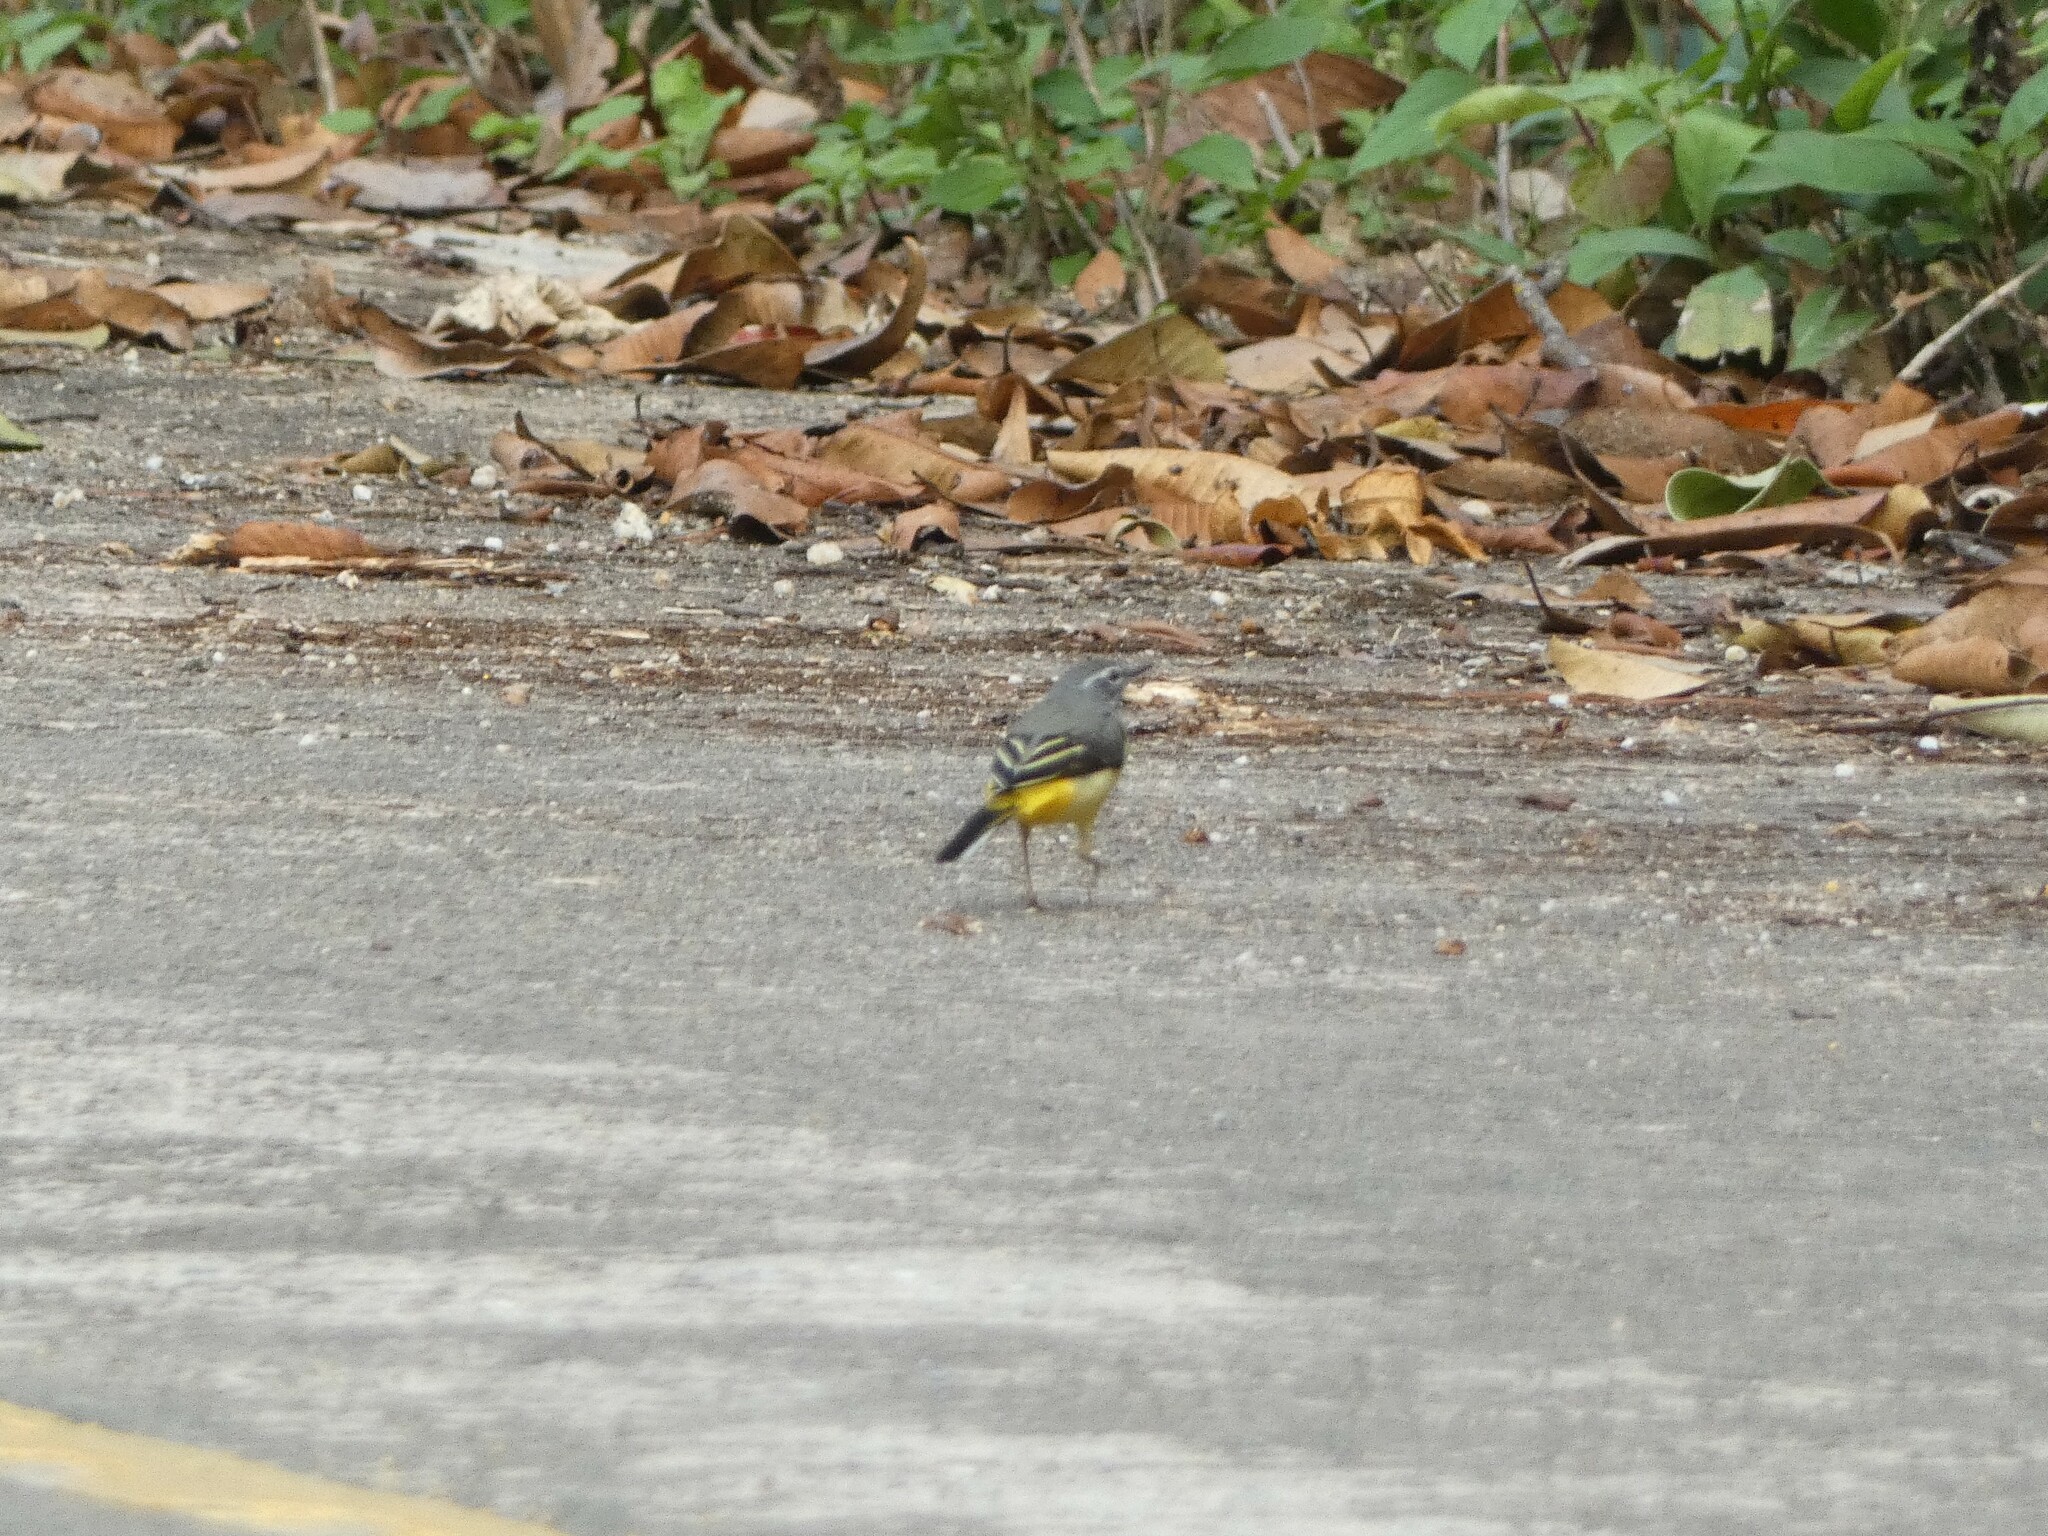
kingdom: Animalia
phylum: Chordata
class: Aves
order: Passeriformes
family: Motacillidae
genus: Motacilla
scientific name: Motacilla cinerea
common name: Grey wagtail
